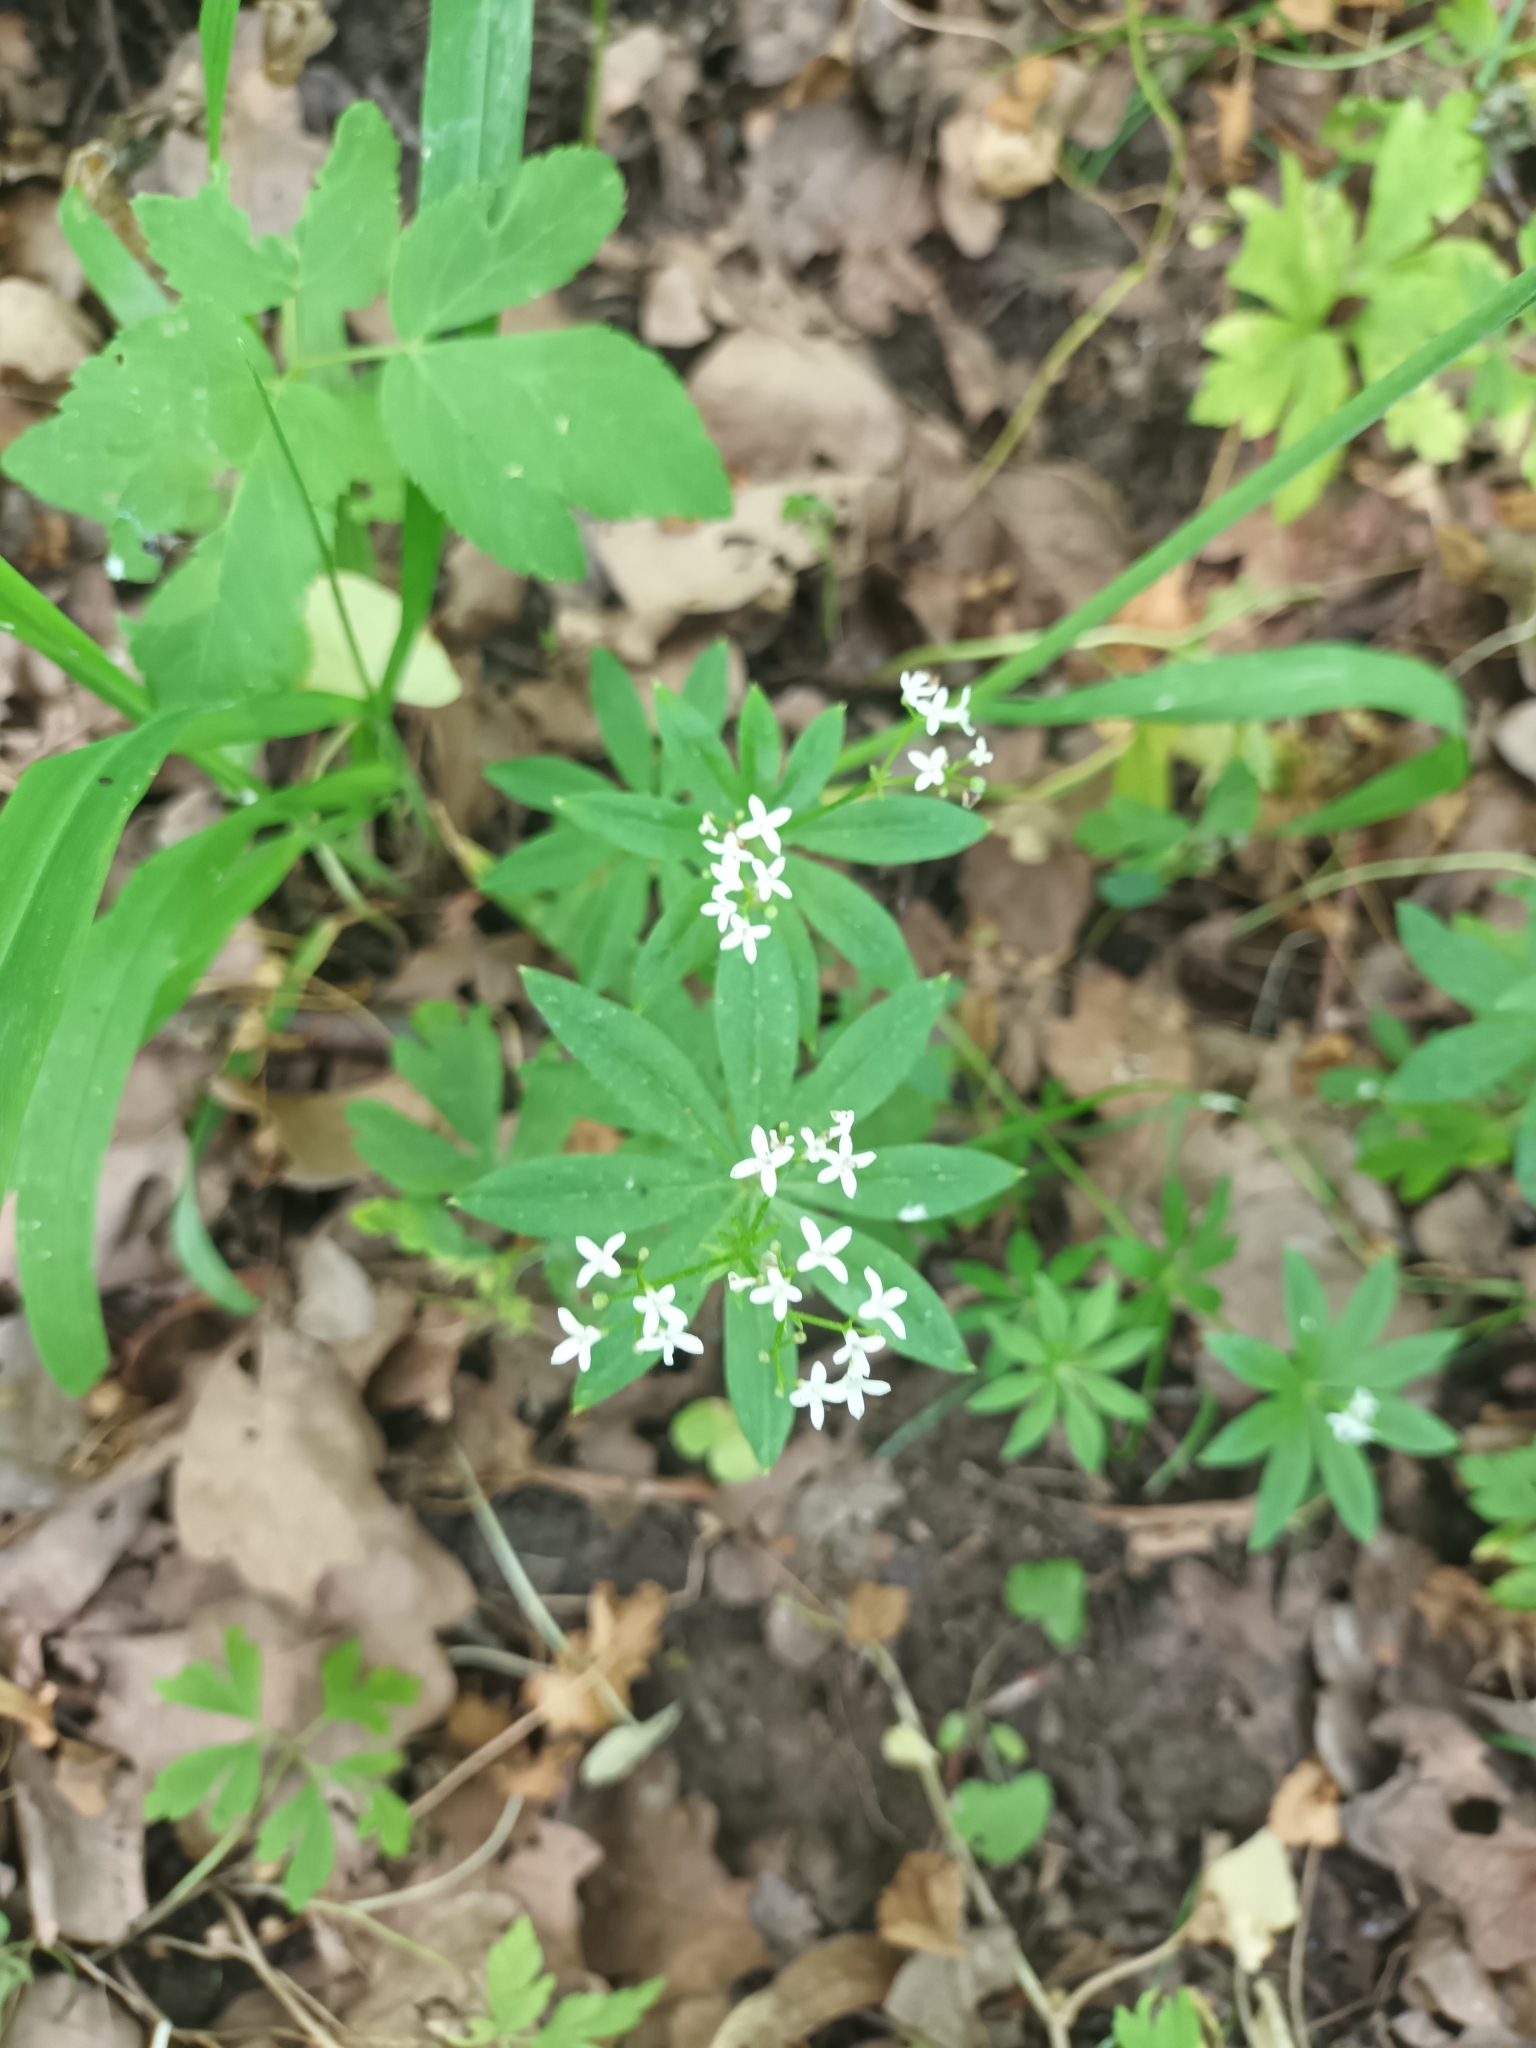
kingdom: Plantae
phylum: Tracheophyta
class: Magnoliopsida
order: Gentianales
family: Rubiaceae
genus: Galium
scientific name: Galium odoratum
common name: Sweet woodruff
